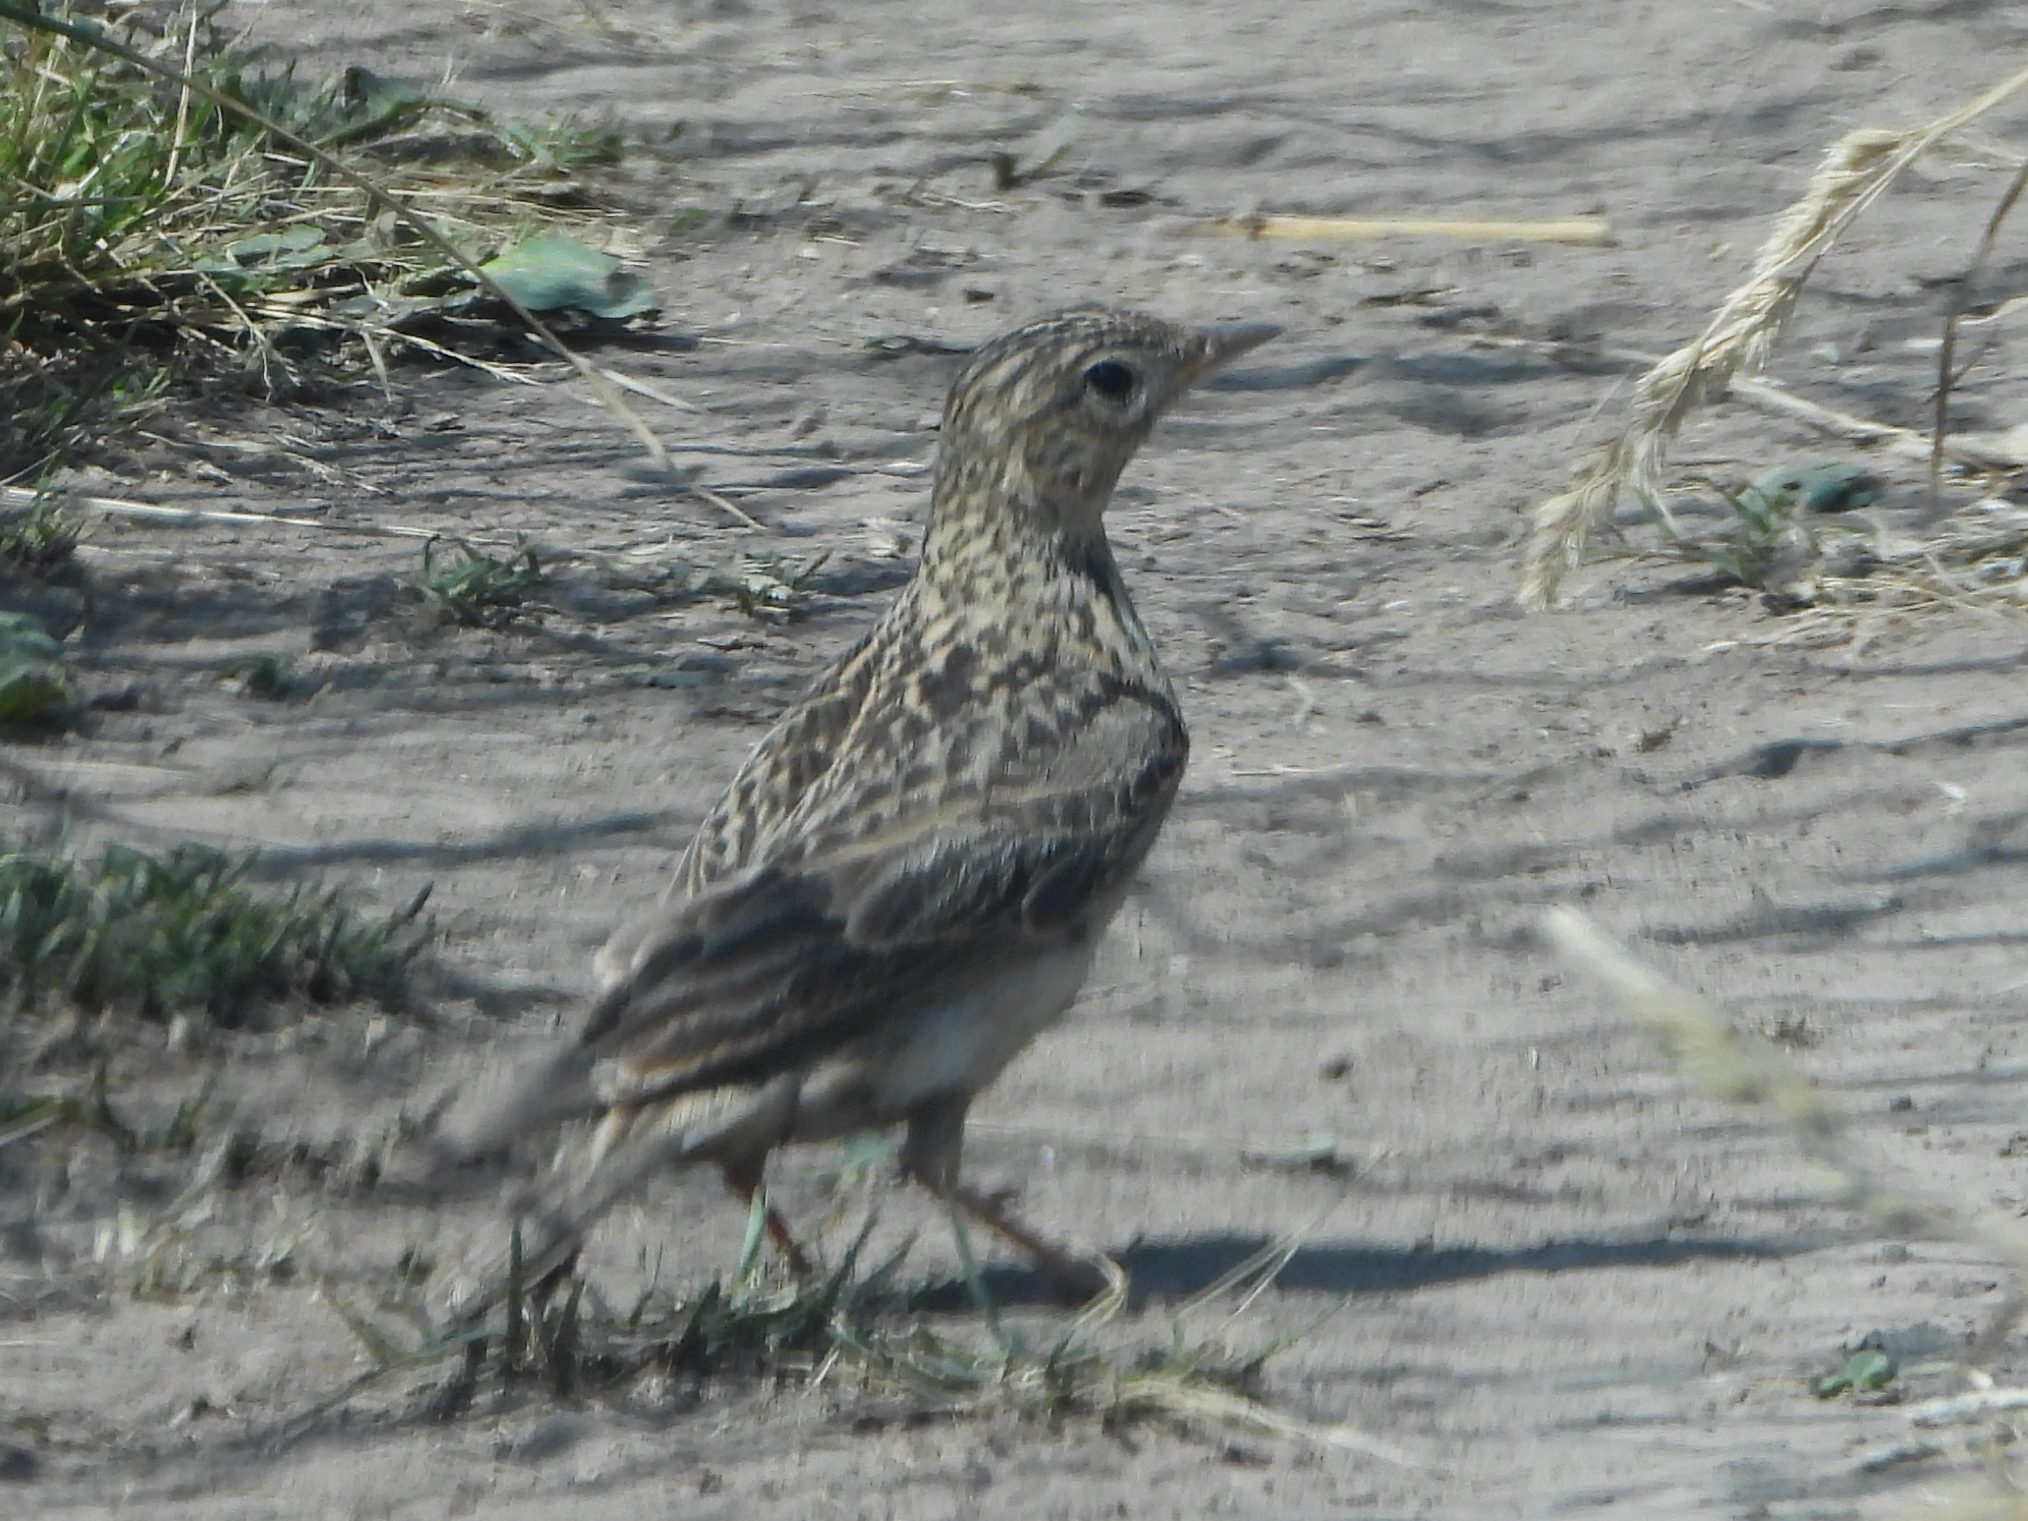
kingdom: Animalia
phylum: Chordata
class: Aves
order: Passeriformes
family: Alaudidae
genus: Alauda
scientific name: Alauda arvensis
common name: Eurasian skylark
